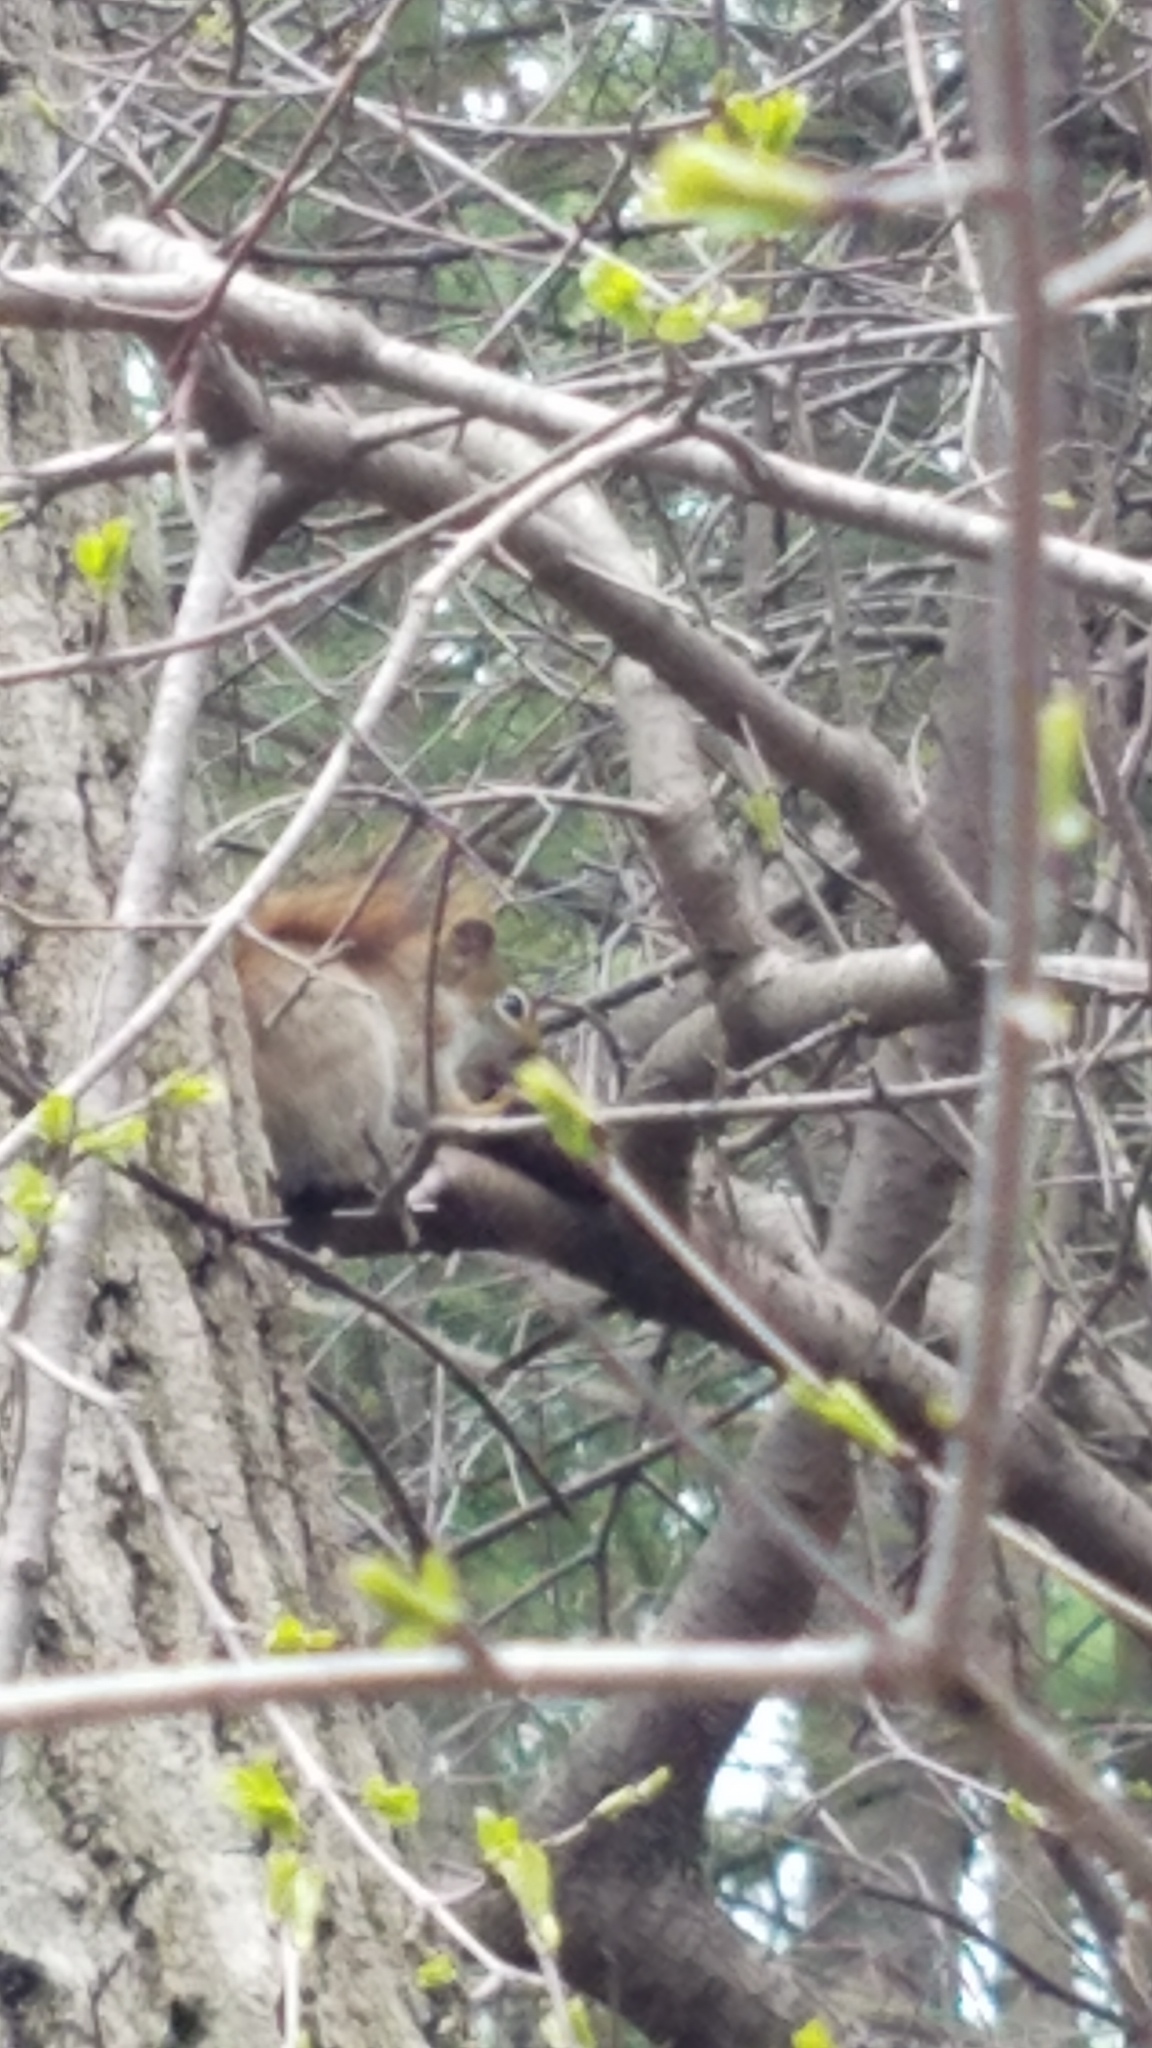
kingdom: Animalia
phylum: Chordata
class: Mammalia
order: Rodentia
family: Sciuridae
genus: Tamiasciurus
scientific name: Tamiasciurus hudsonicus
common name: Red squirrel
